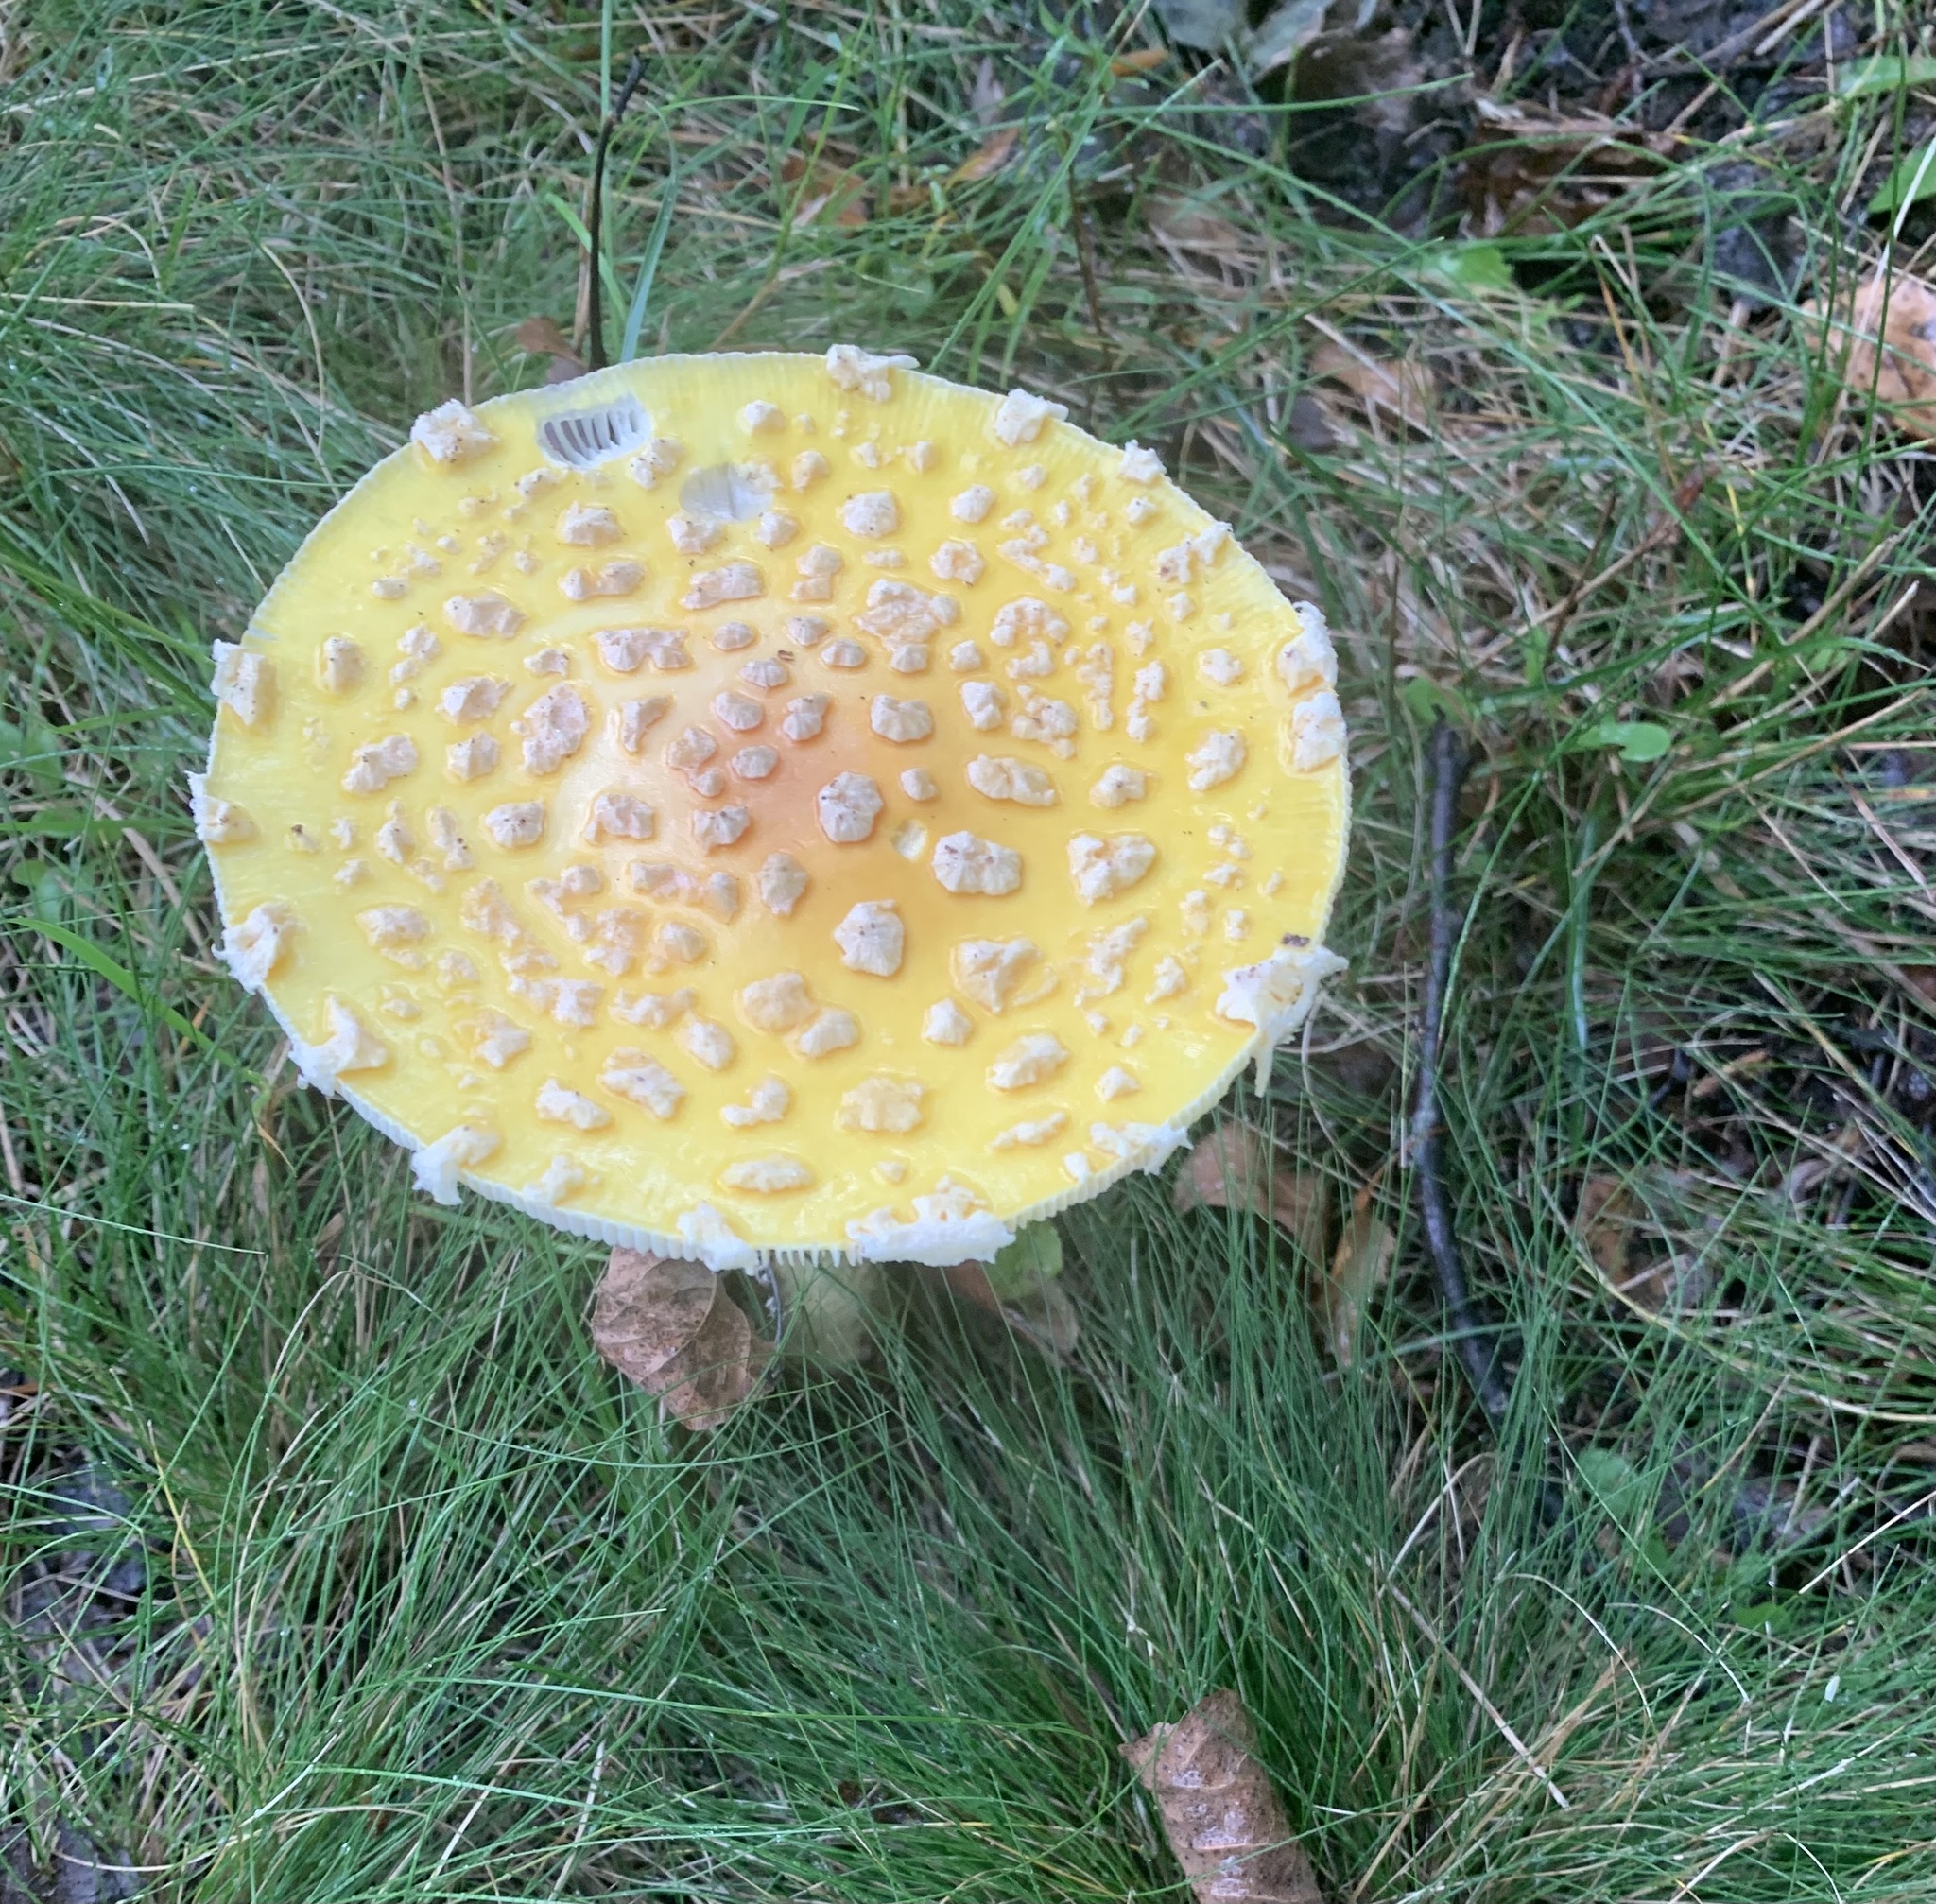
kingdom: Fungi
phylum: Basidiomycota
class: Agaricomycetes
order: Agaricales
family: Amanitaceae
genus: Amanita
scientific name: Amanita muscaria
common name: Fly agaric
